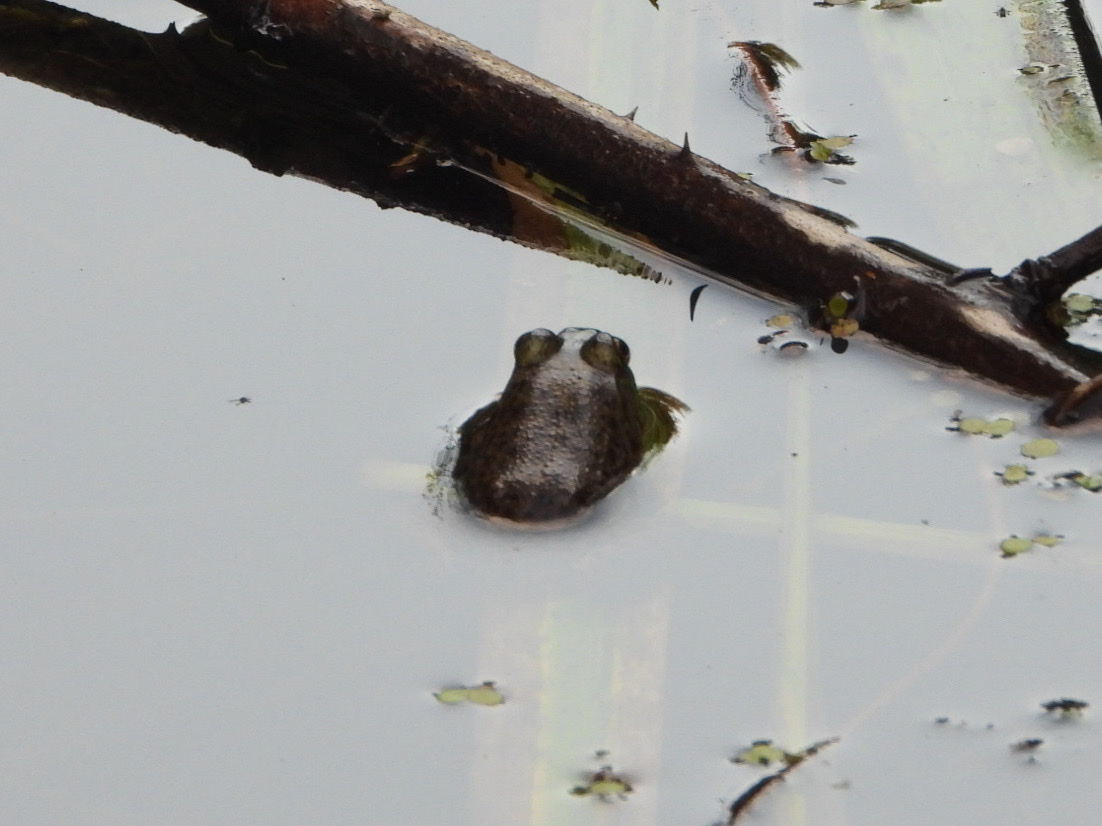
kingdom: Animalia
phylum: Chordata
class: Amphibia
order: Anura
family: Ranidae
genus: Lithobates
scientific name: Lithobates catesbeianus
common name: American bullfrog
